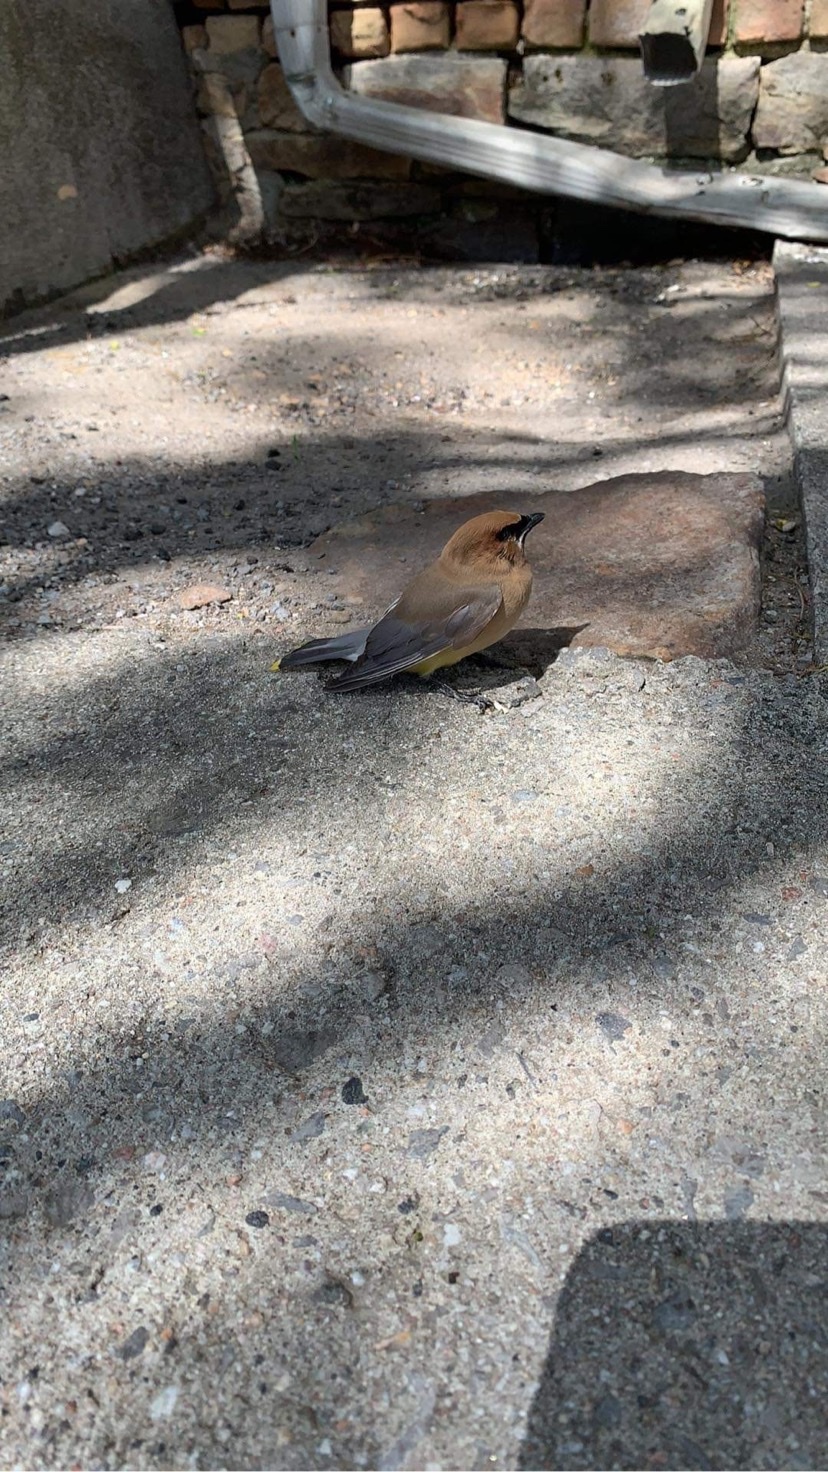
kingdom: Animalia
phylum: Chordata
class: Aves
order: Passeriformes
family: Bombycillidae
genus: Bombycilla
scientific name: Bombycilla cedrorum
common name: Cedar waxwing
